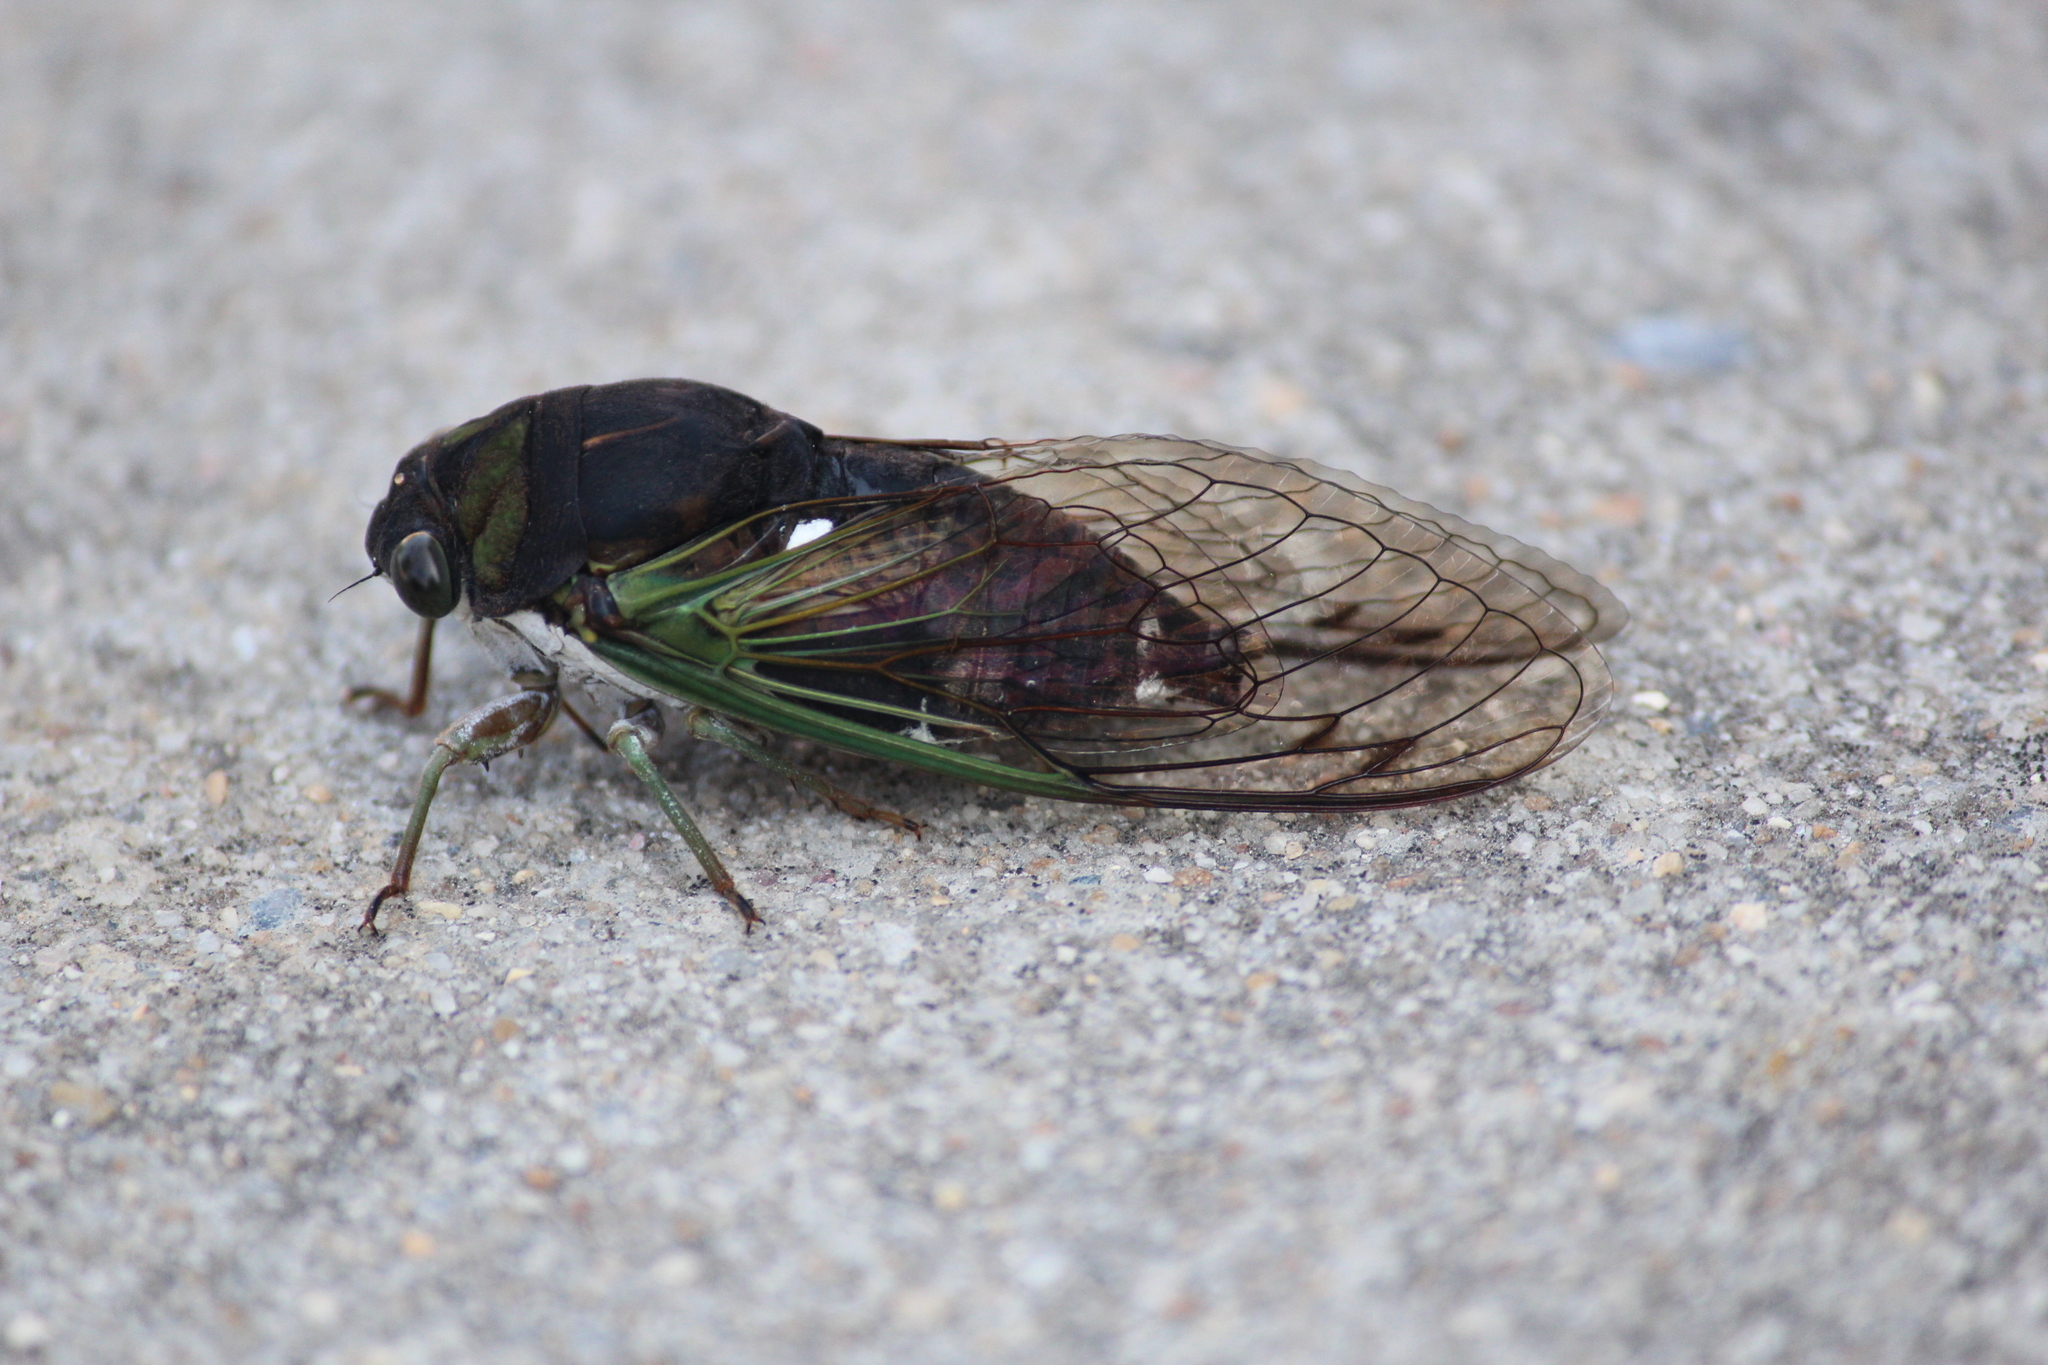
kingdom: Animalia
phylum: Arthropoda
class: Insecta
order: Hemiptera
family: Cicadidae
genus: Neotibicen
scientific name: Neotibicen tibicen
